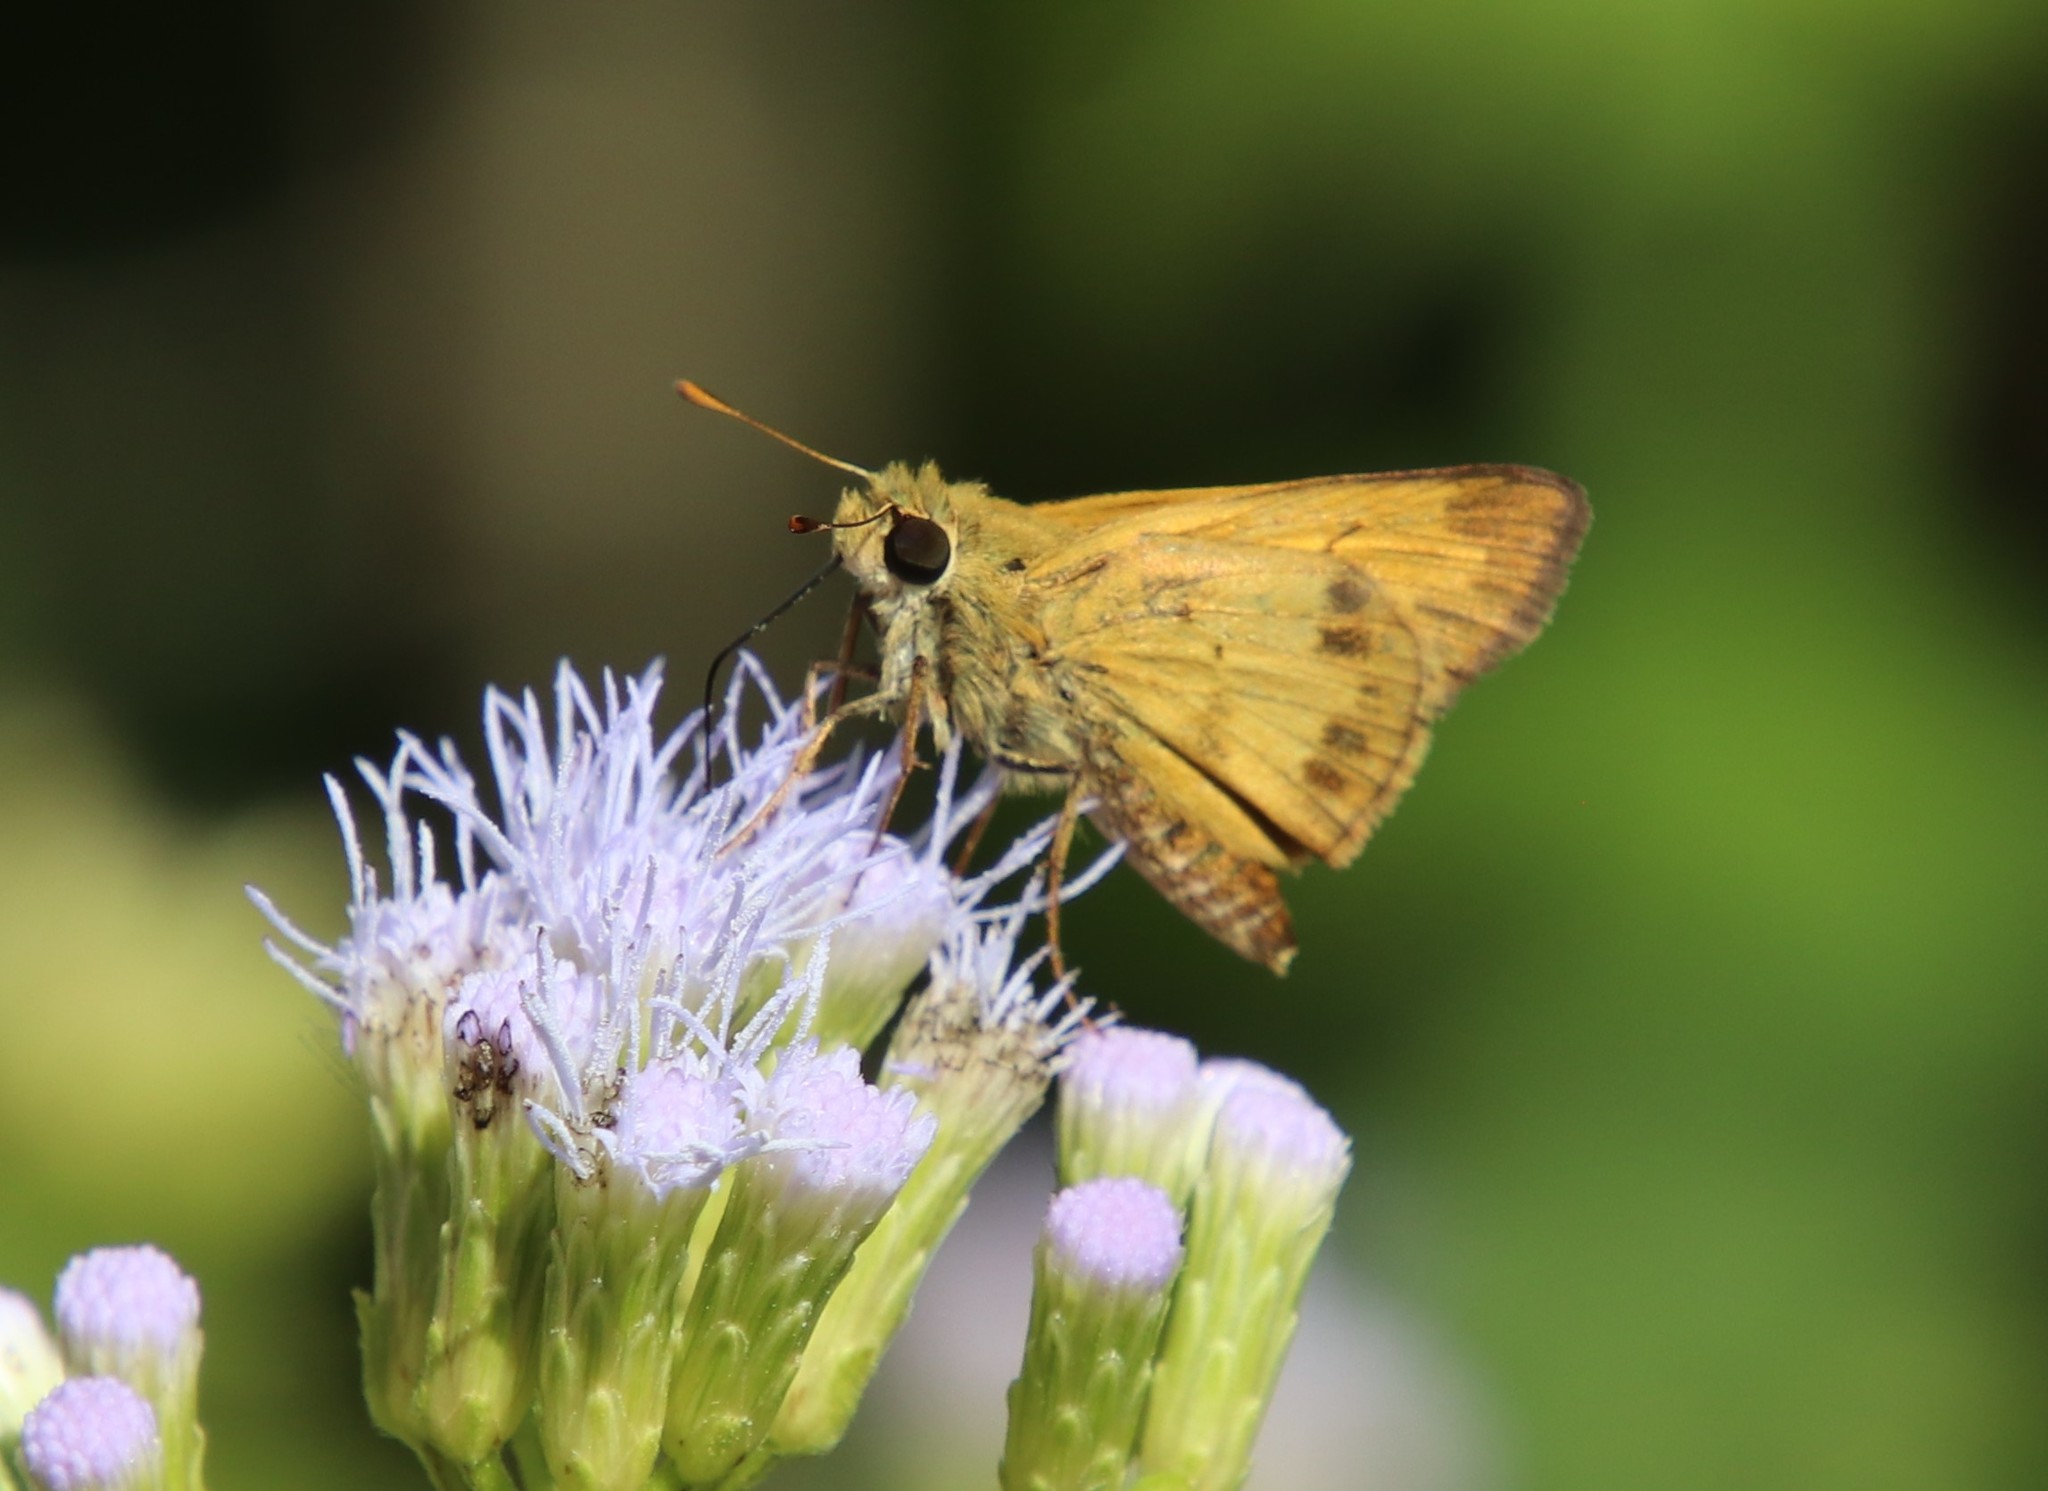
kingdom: Animalia
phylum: Arthropoda
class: Insecta
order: Lepidoptera
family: Hesperiidae
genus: Polites
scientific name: Polites vibex
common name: Whirlabout
